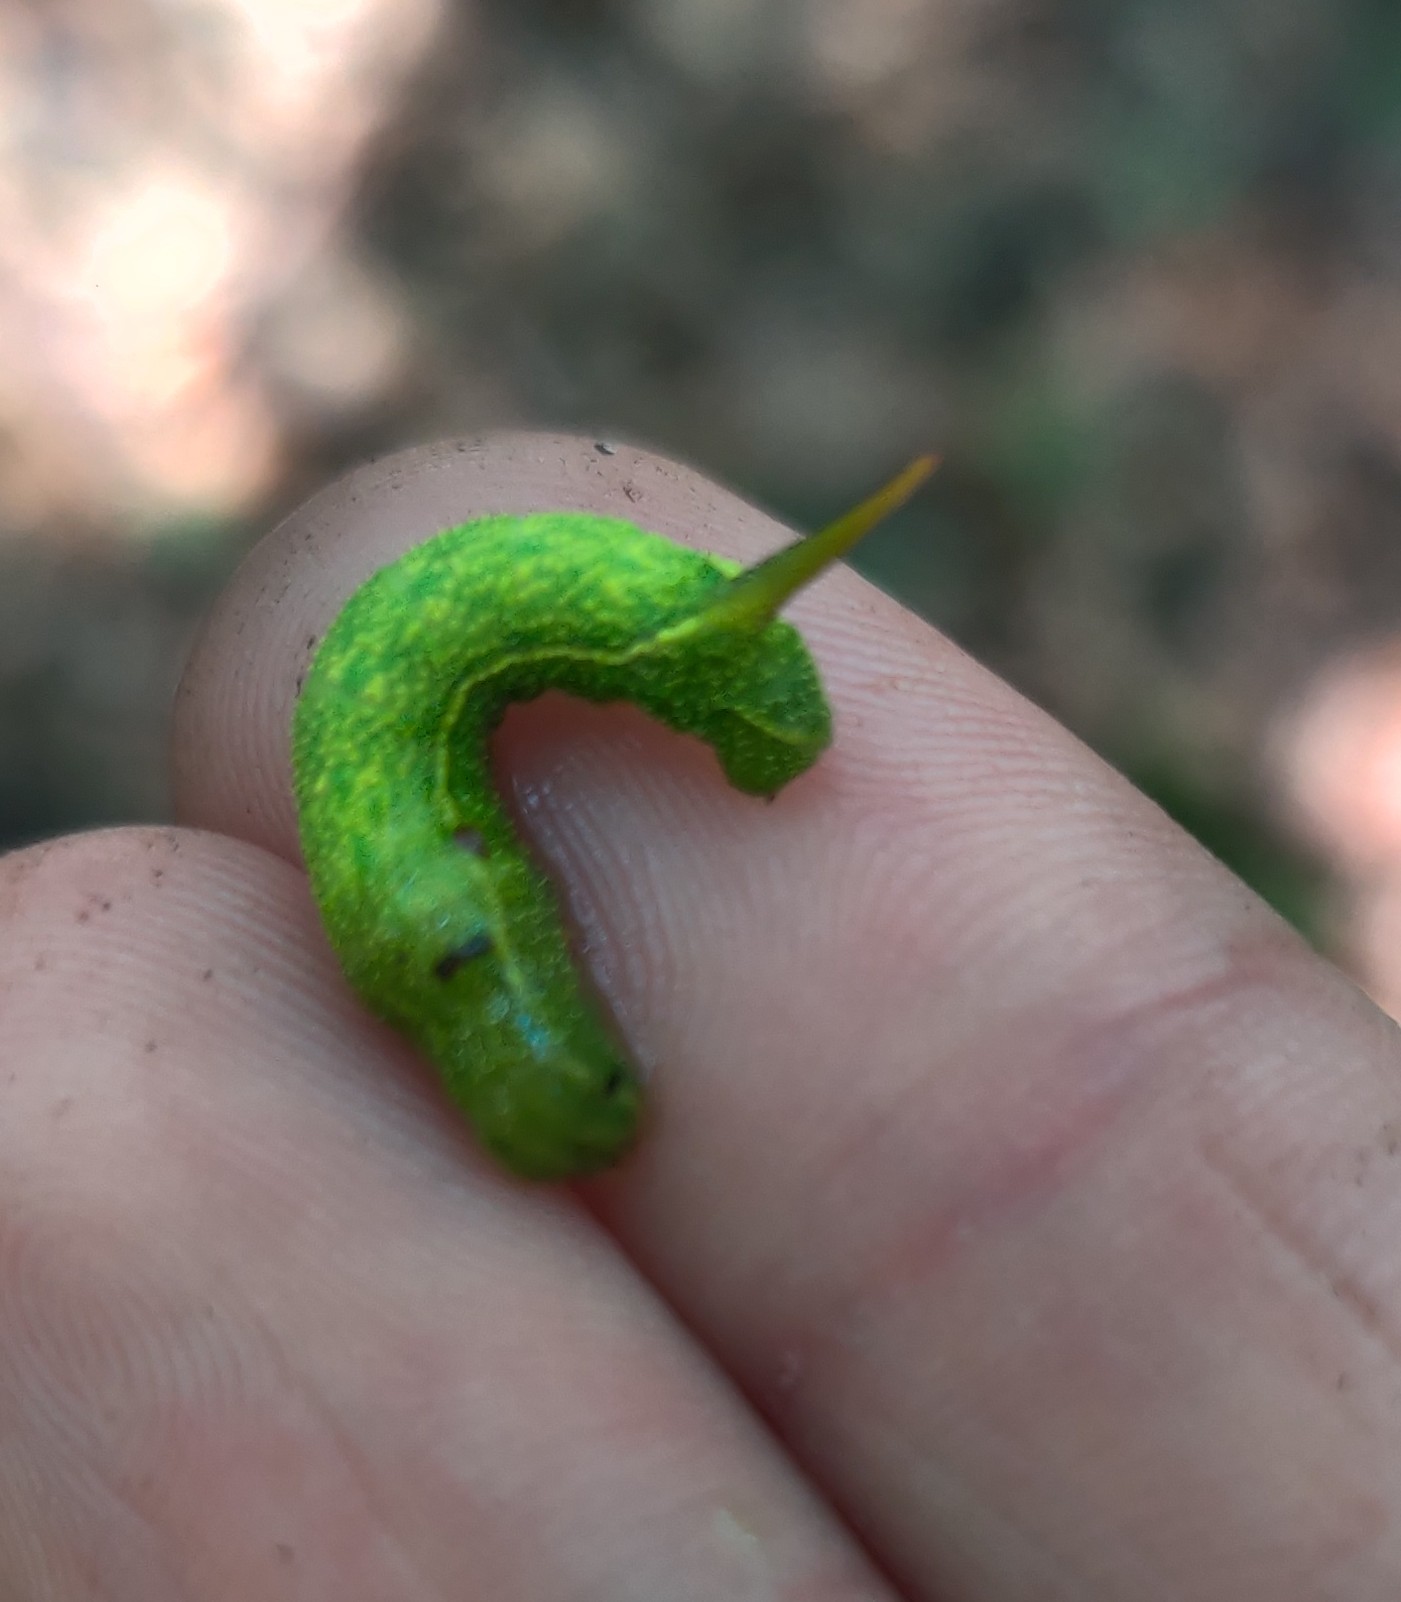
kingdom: Animalia
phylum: Arthropoda
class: Insecta
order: Lepidoptera
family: Sphingidae
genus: Darapsa
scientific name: Darapsa myron
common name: Hog sphinx
